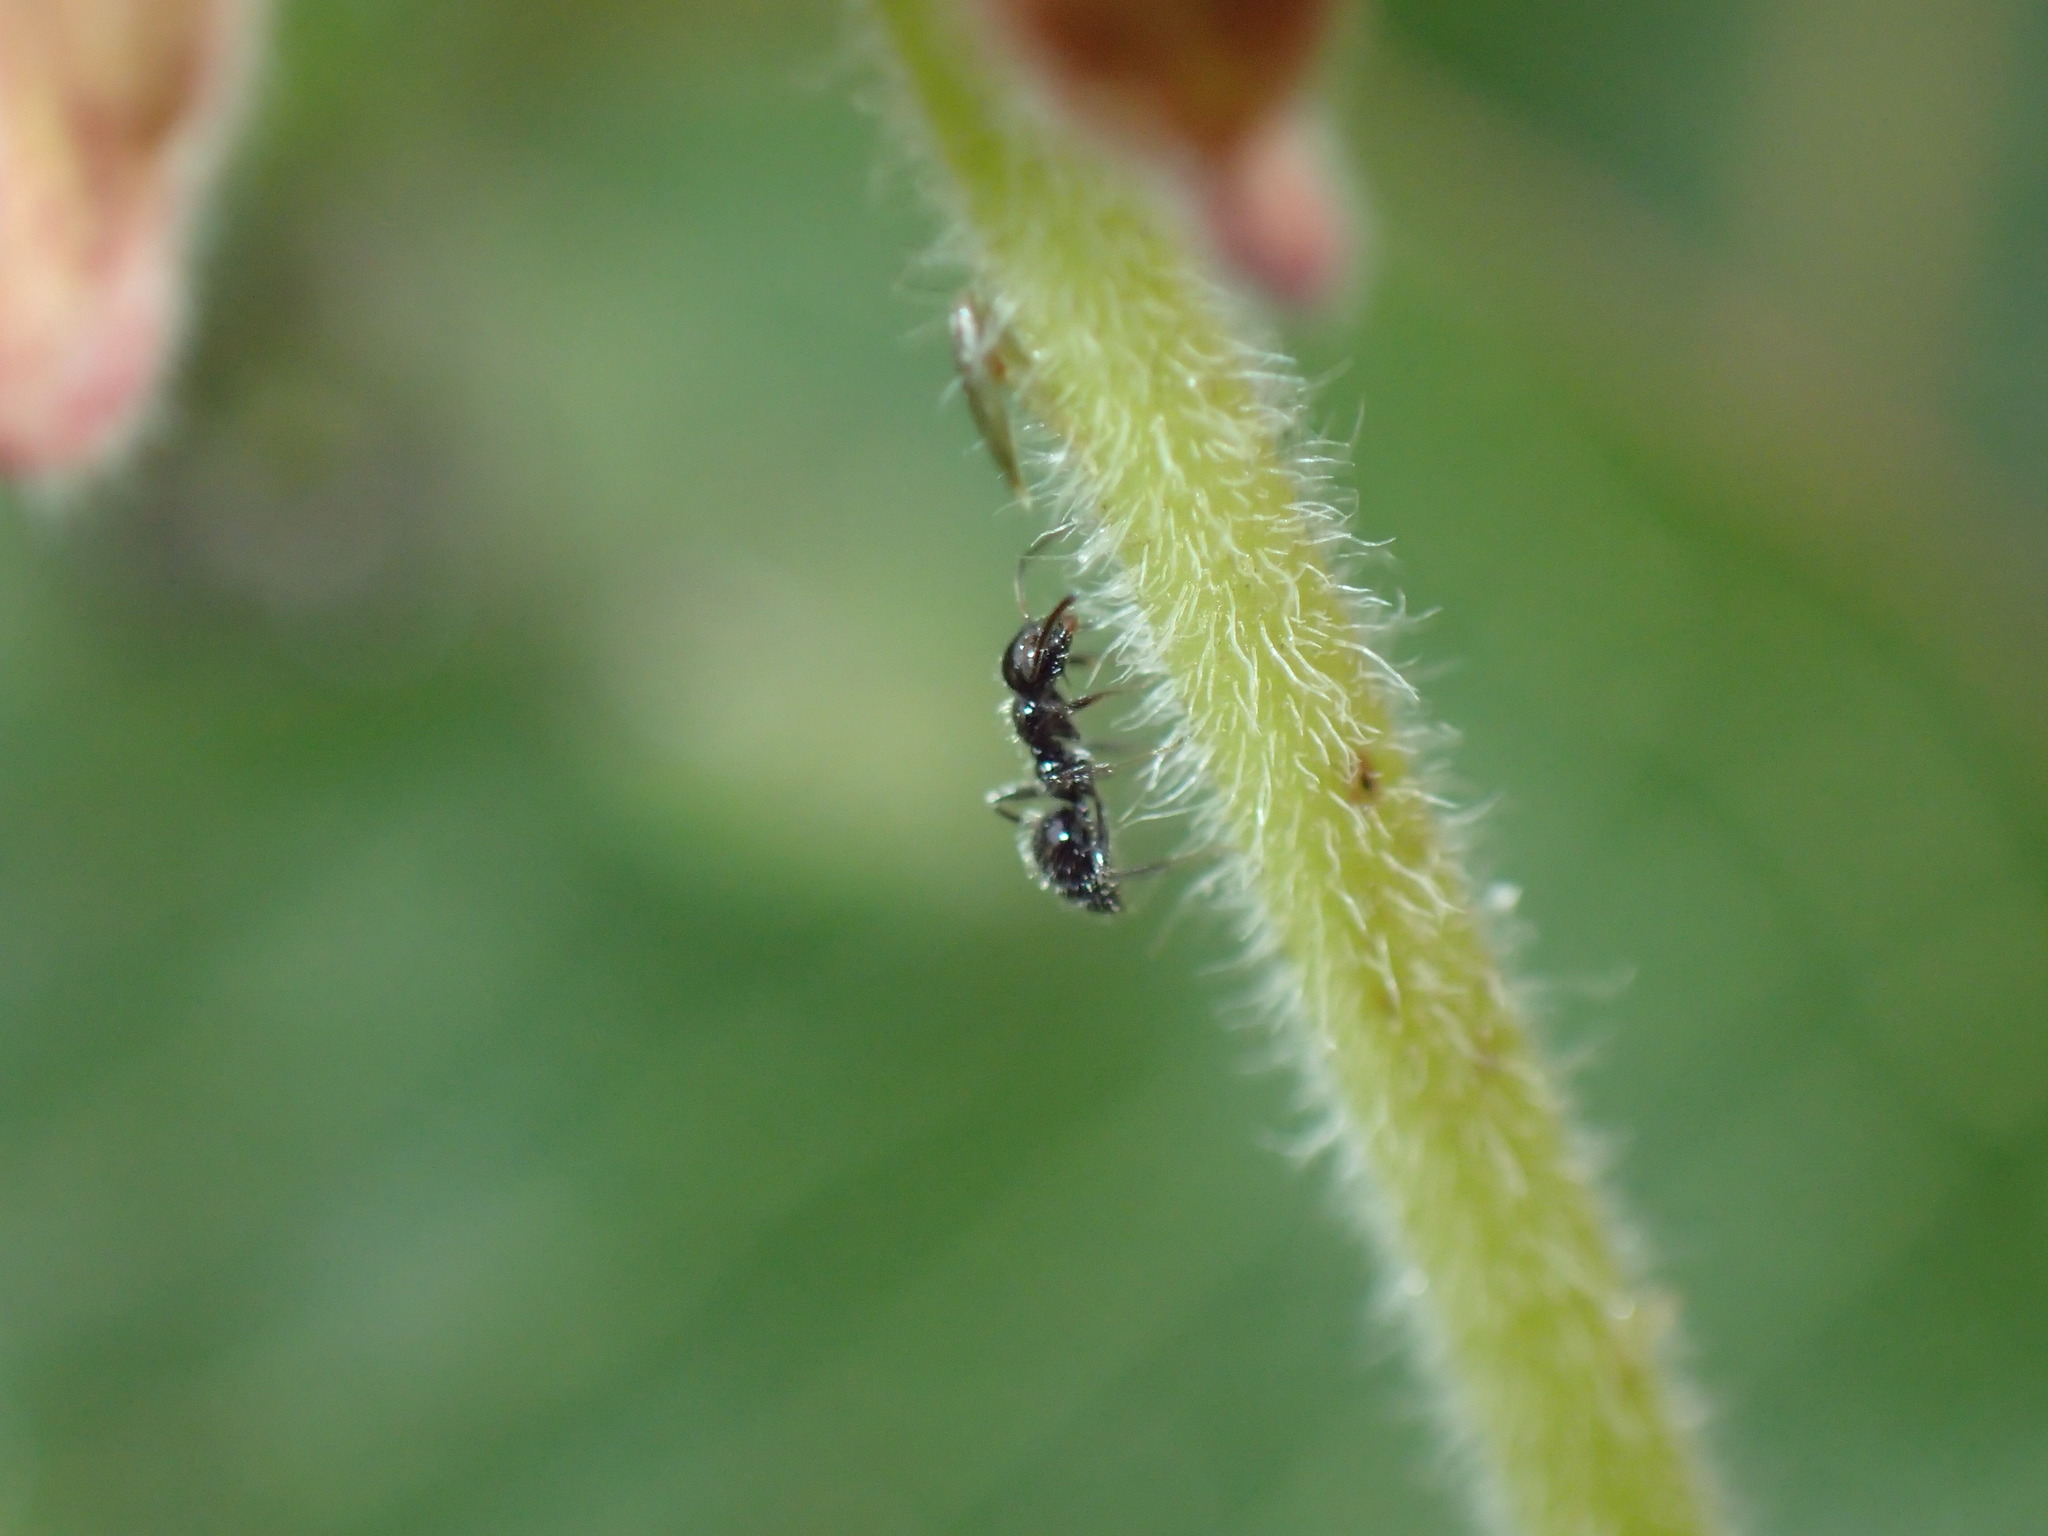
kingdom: Animalia
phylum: Arthropoda
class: Insecta
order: Hymenoptera
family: Formicidae
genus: Lepisiota
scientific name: Lepisiota crinita
